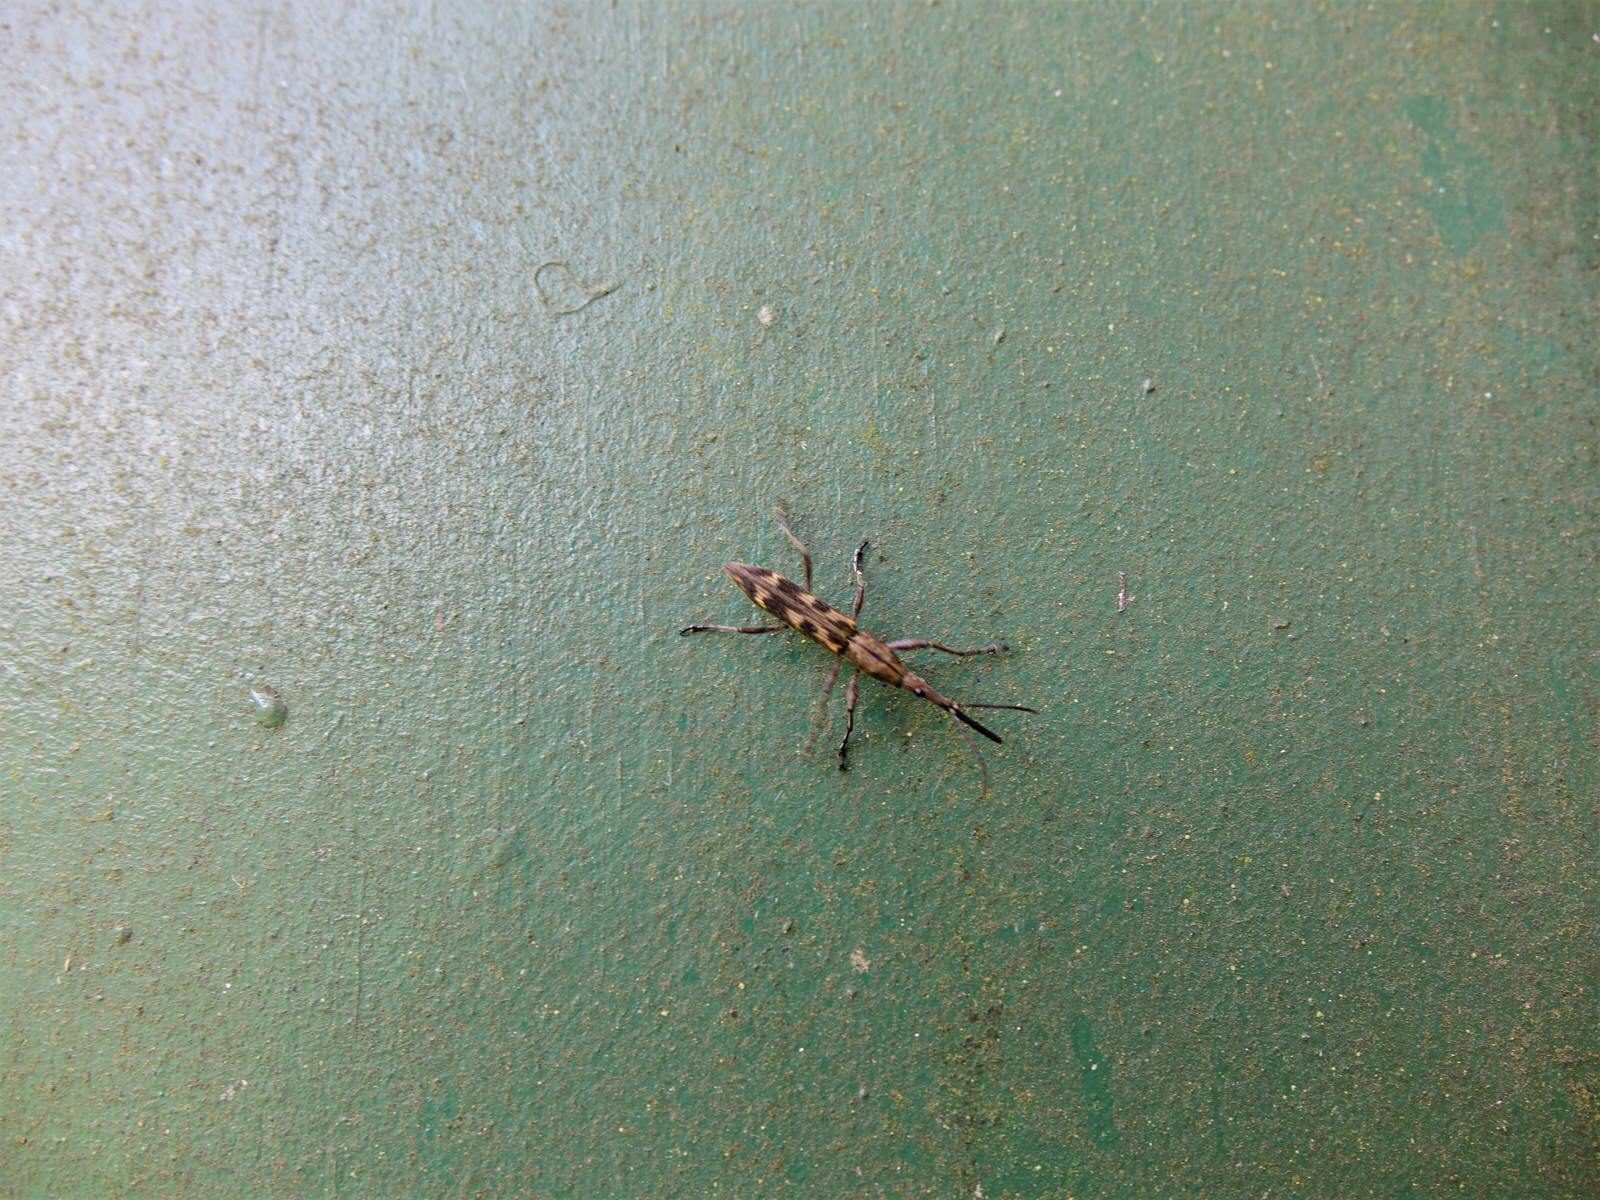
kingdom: Animalia
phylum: Arthropoda
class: Insecta
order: Coleoptera
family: Brentidae
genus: Lasiorhynchus
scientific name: Lasiorhynchus barbicornis
